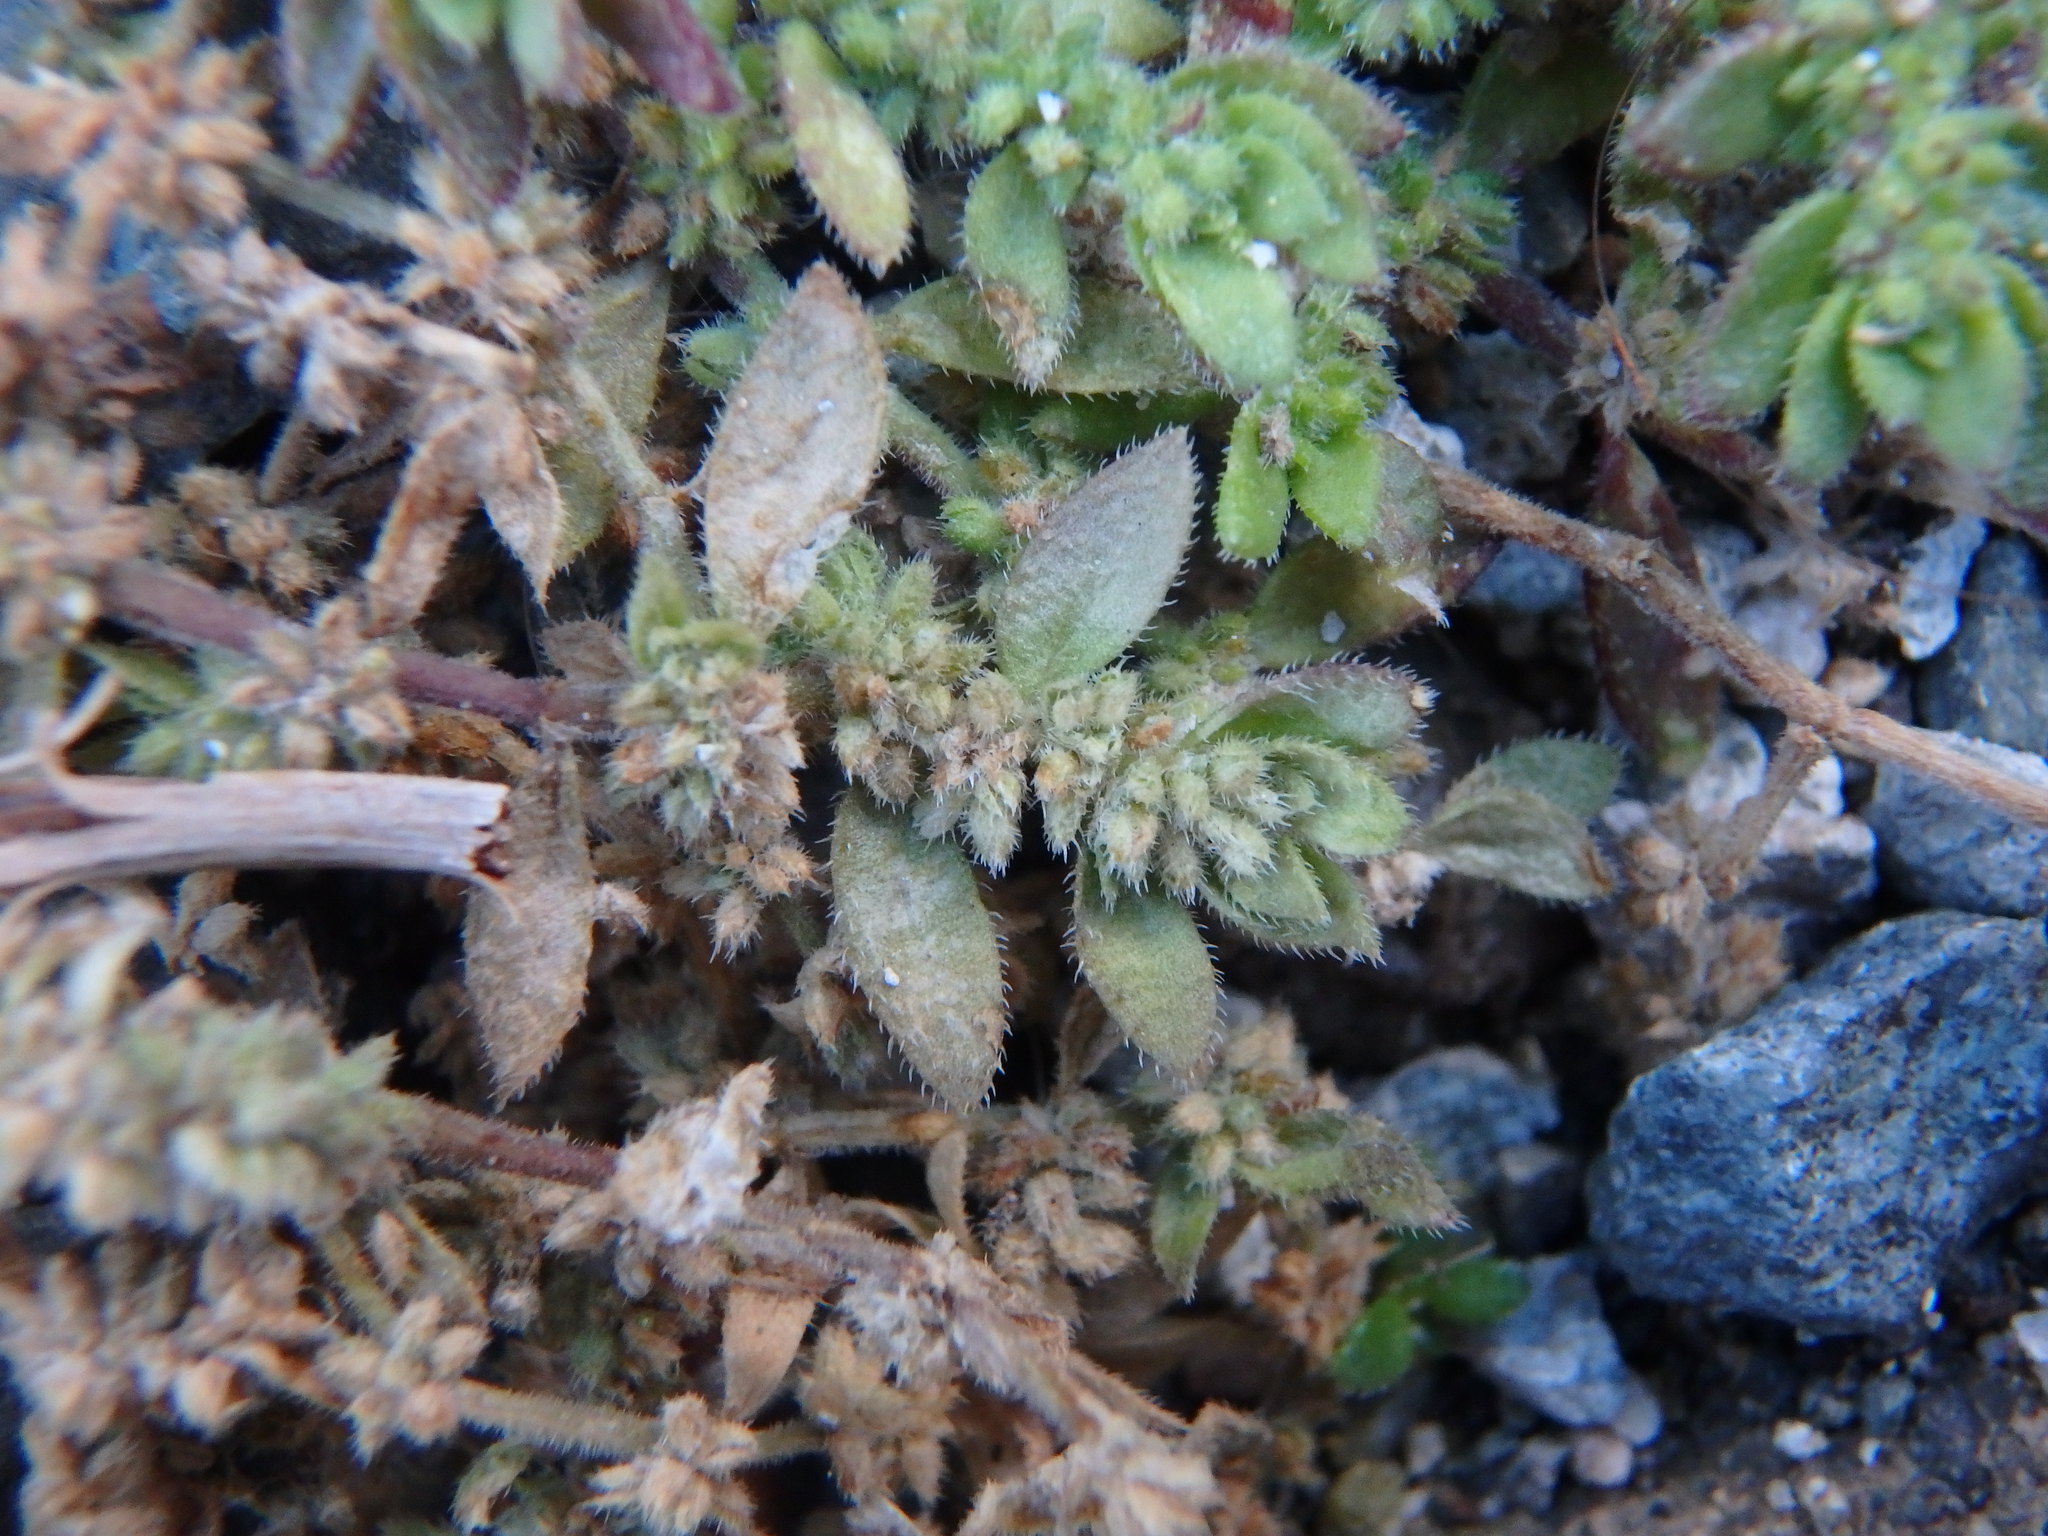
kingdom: Plantae
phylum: Tracheophyta
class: Magnoliopsida
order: Caryophyllales
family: Caryophyllaceae
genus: Herniaria
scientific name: Herniaria hirsuta
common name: Hairy rupturewort
